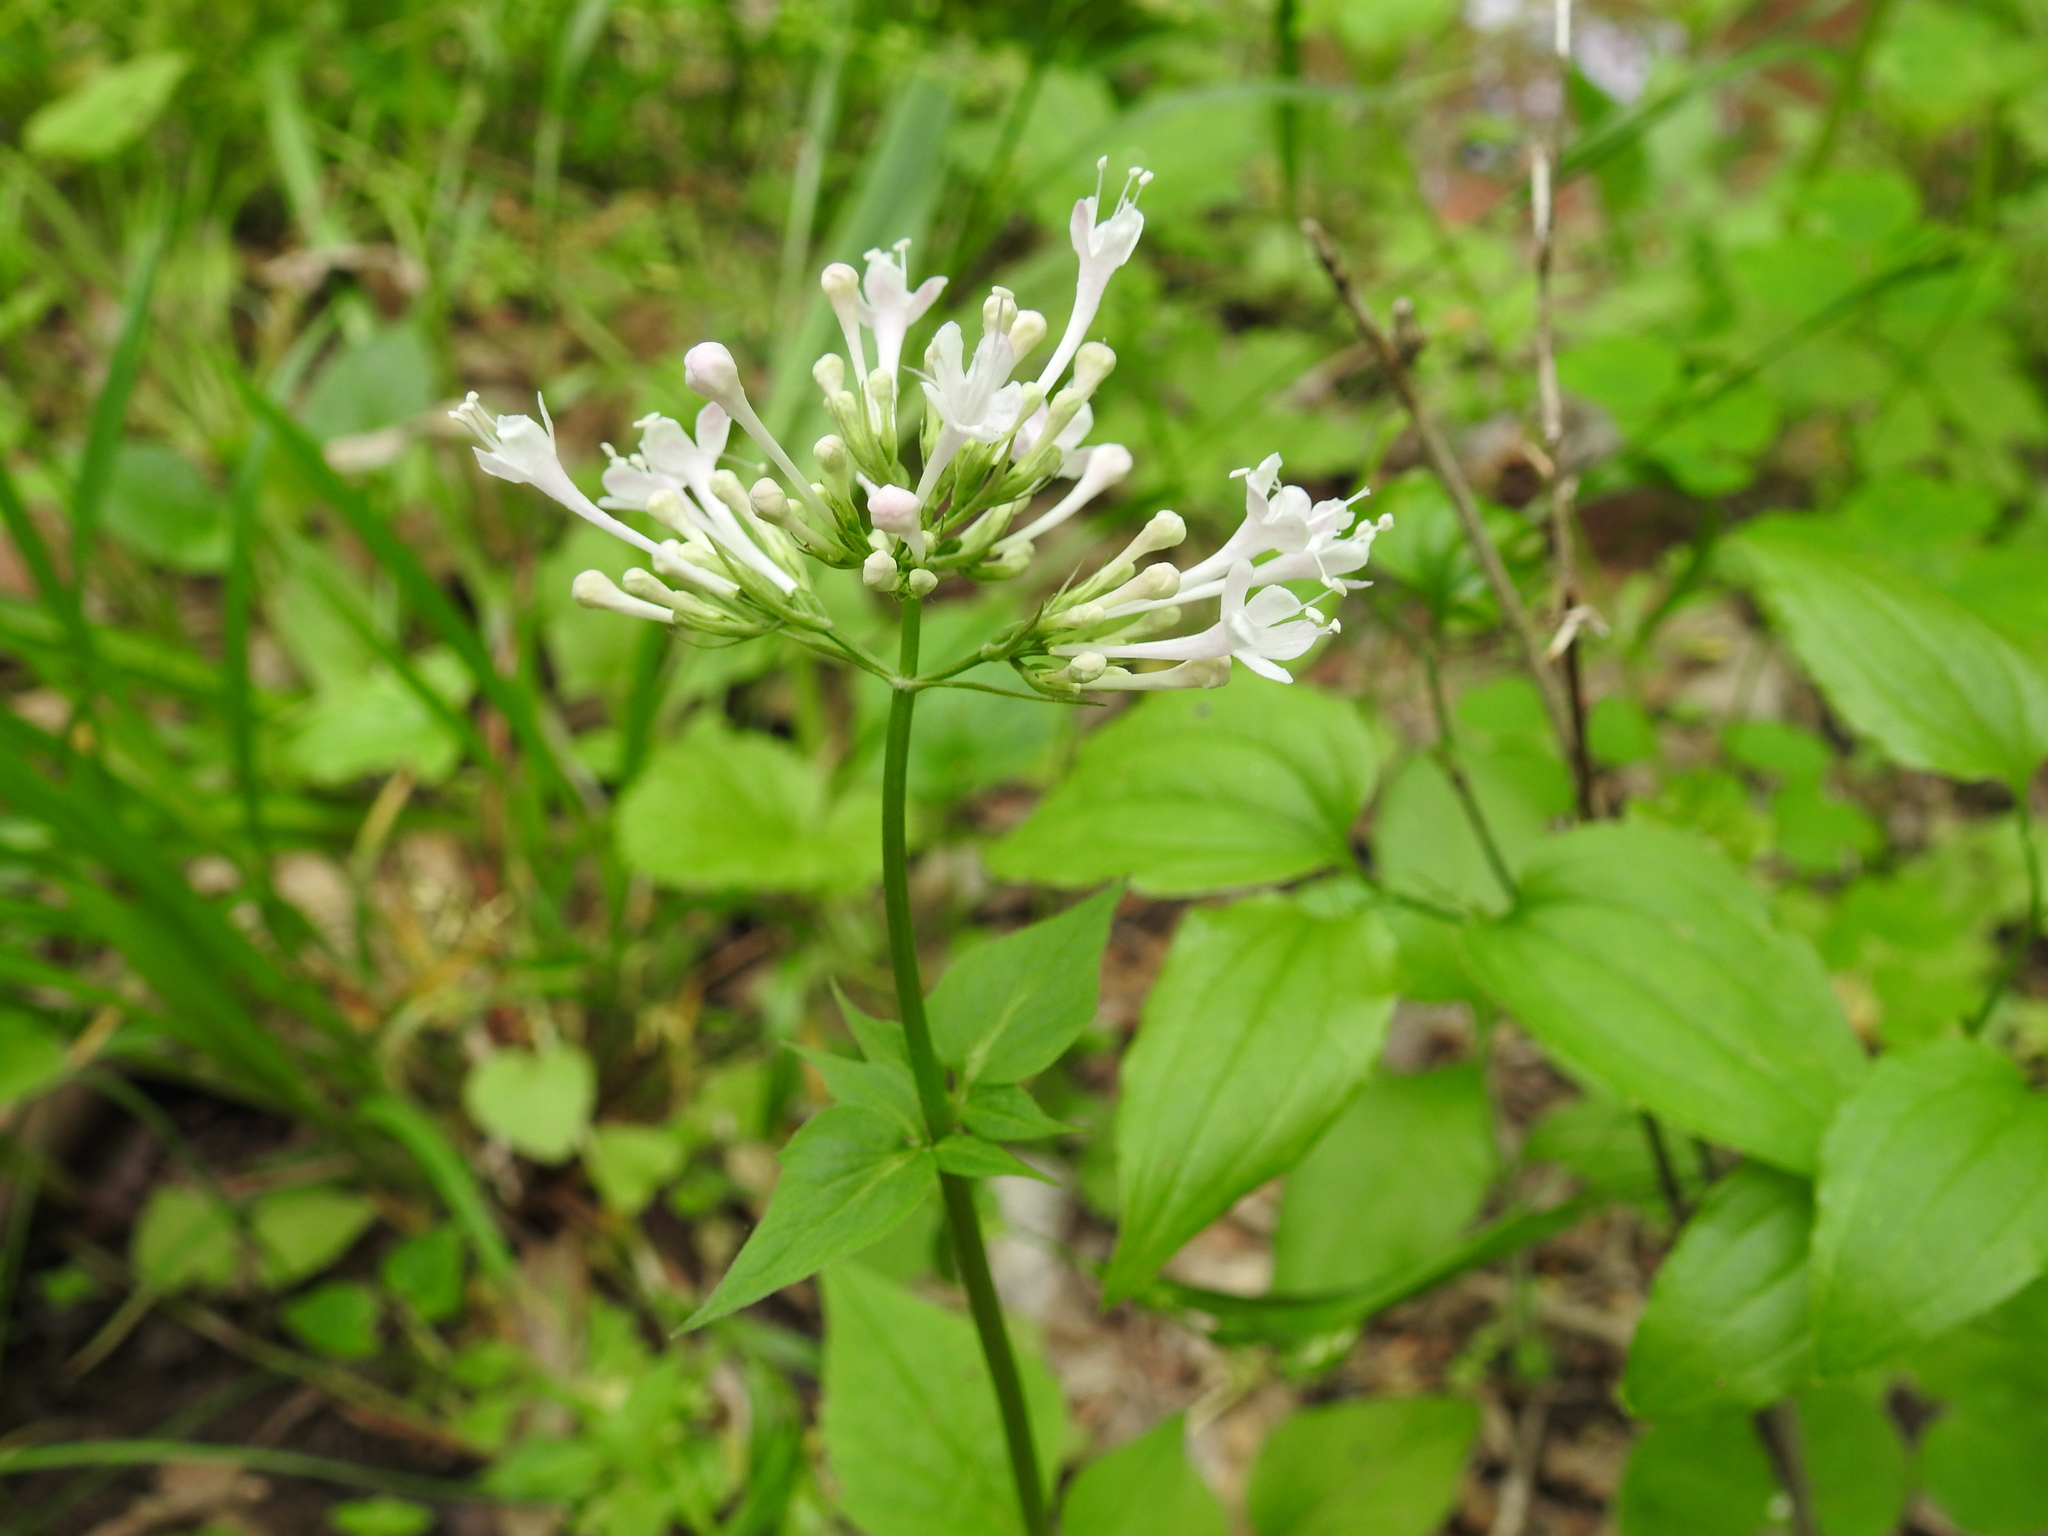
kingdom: Plantae
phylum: Tracheophyta
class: Magnoliopsida
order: Dipsacales
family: Caprifoliaceae
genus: Valeriana
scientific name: Valeriana pauciflora
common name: Long-tube valeriana
